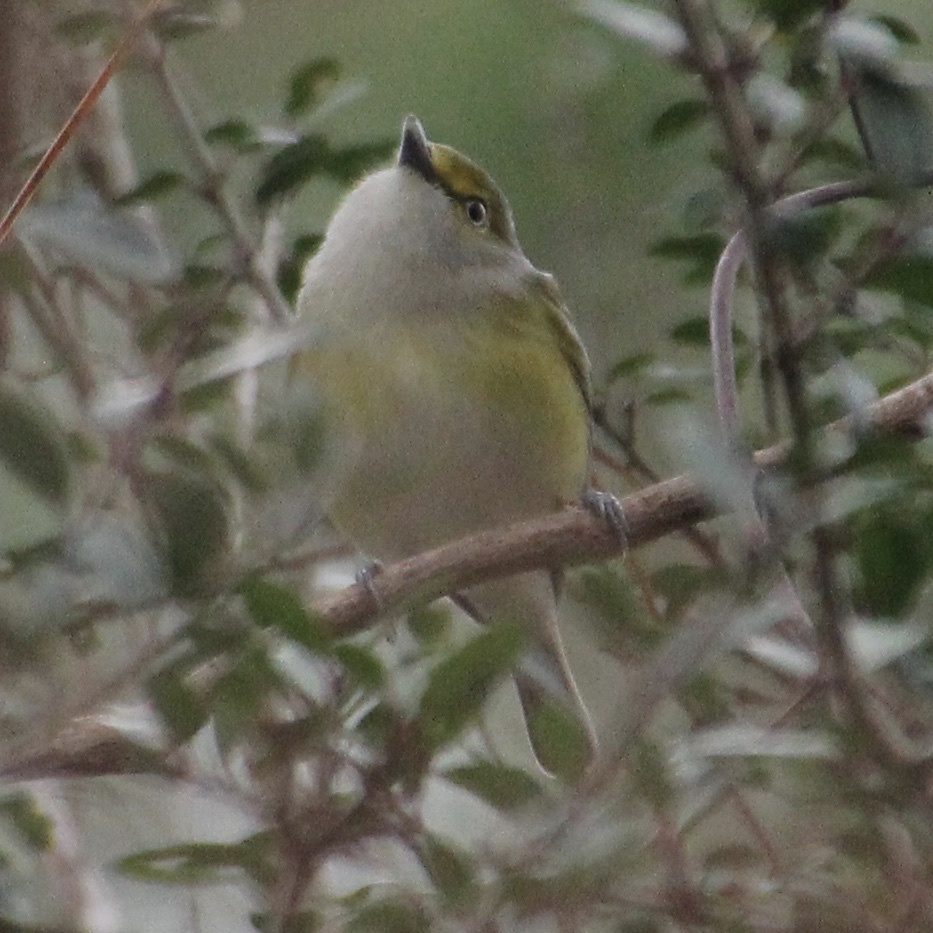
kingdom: Animalia
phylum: Chordata
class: Aves
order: Passeriformes
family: Vireonidae
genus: Vireo
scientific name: Vireo griseus
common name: White-eyed vireo
